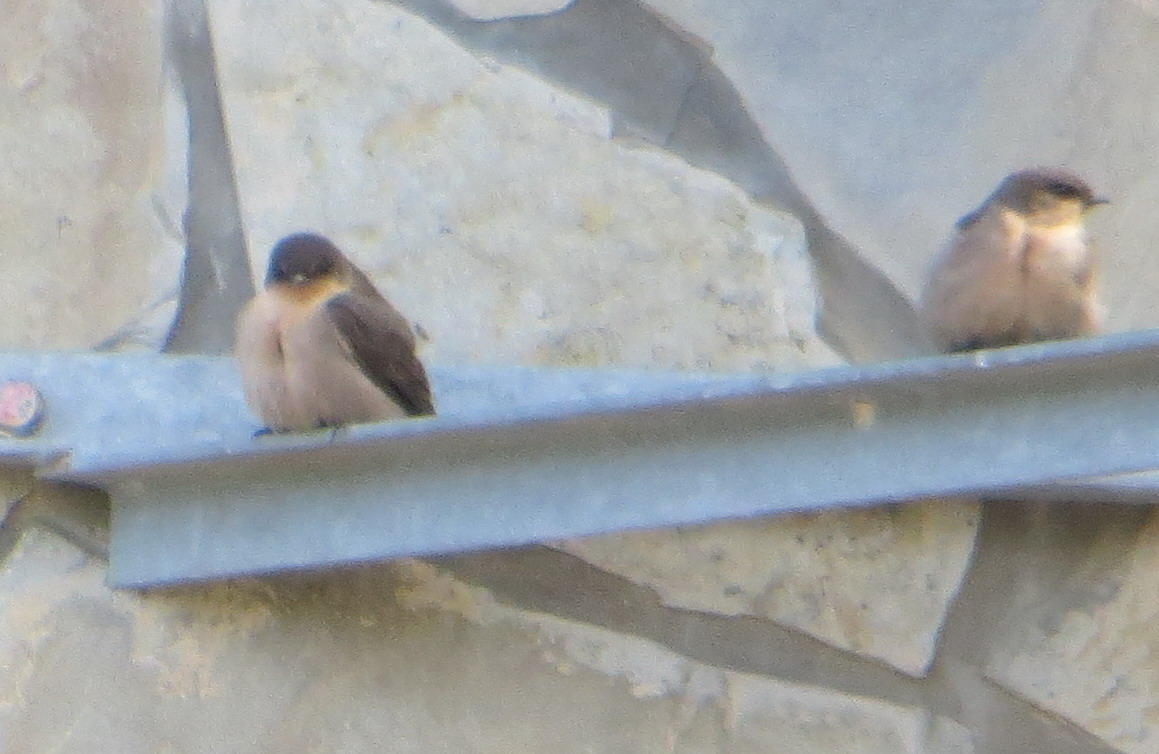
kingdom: Animalia
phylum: Chordata
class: Aves
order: Passeriformes
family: Hirundinidae
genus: Ptyonoprogne
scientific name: Ptyonoprogne fuligula
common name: Rock martin
